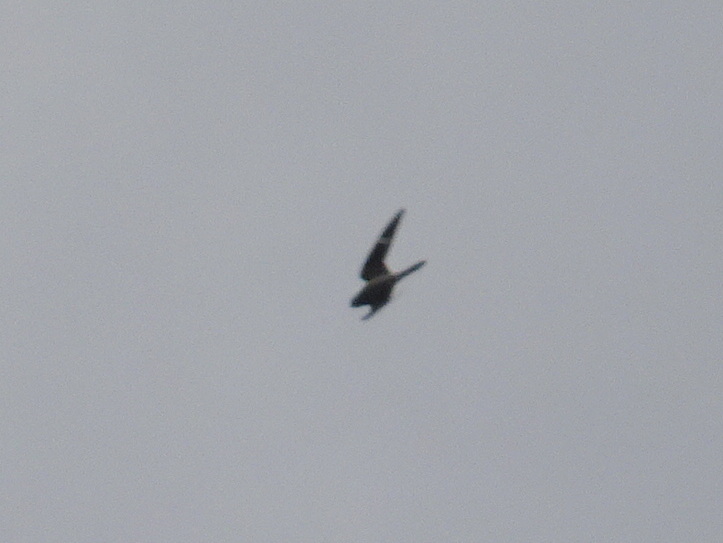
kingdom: Animalia
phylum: Chordata
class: Aves
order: Caprimulgiformes
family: Caprimulgidae
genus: Chordeiles
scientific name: Chordeiles minor
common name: Common nighthawk
